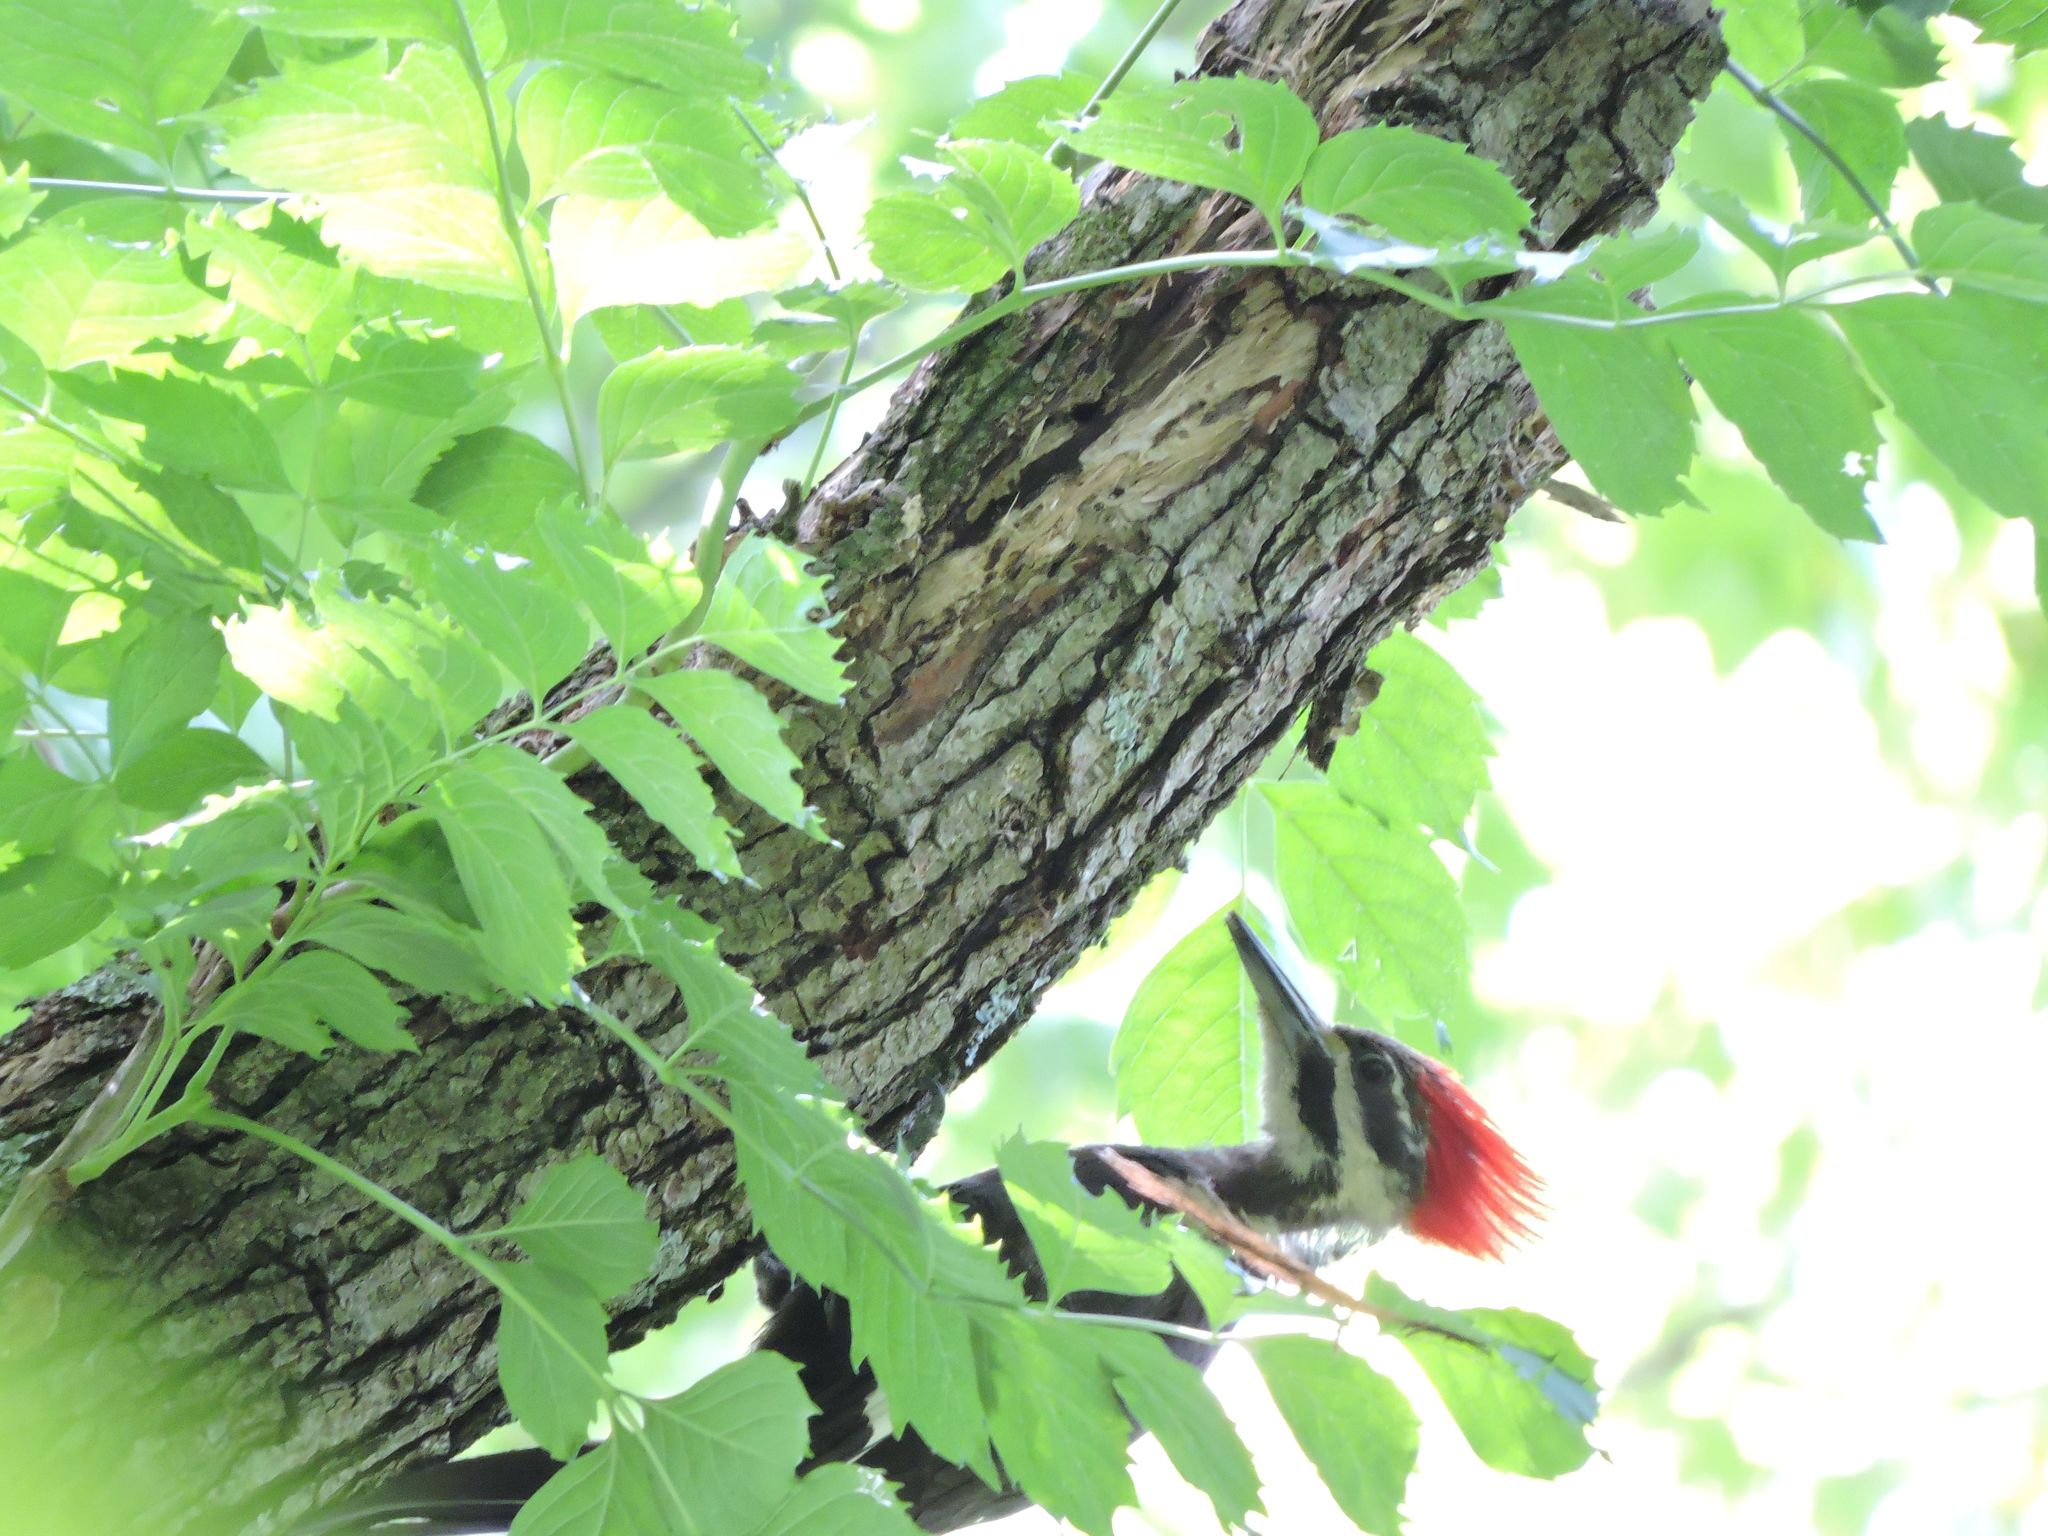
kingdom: Animalia
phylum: Chordata
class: Aves
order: Piciformes
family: Picidae
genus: Dryocopus
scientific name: Dryocopus pileatus
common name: Pileated woodpecker
